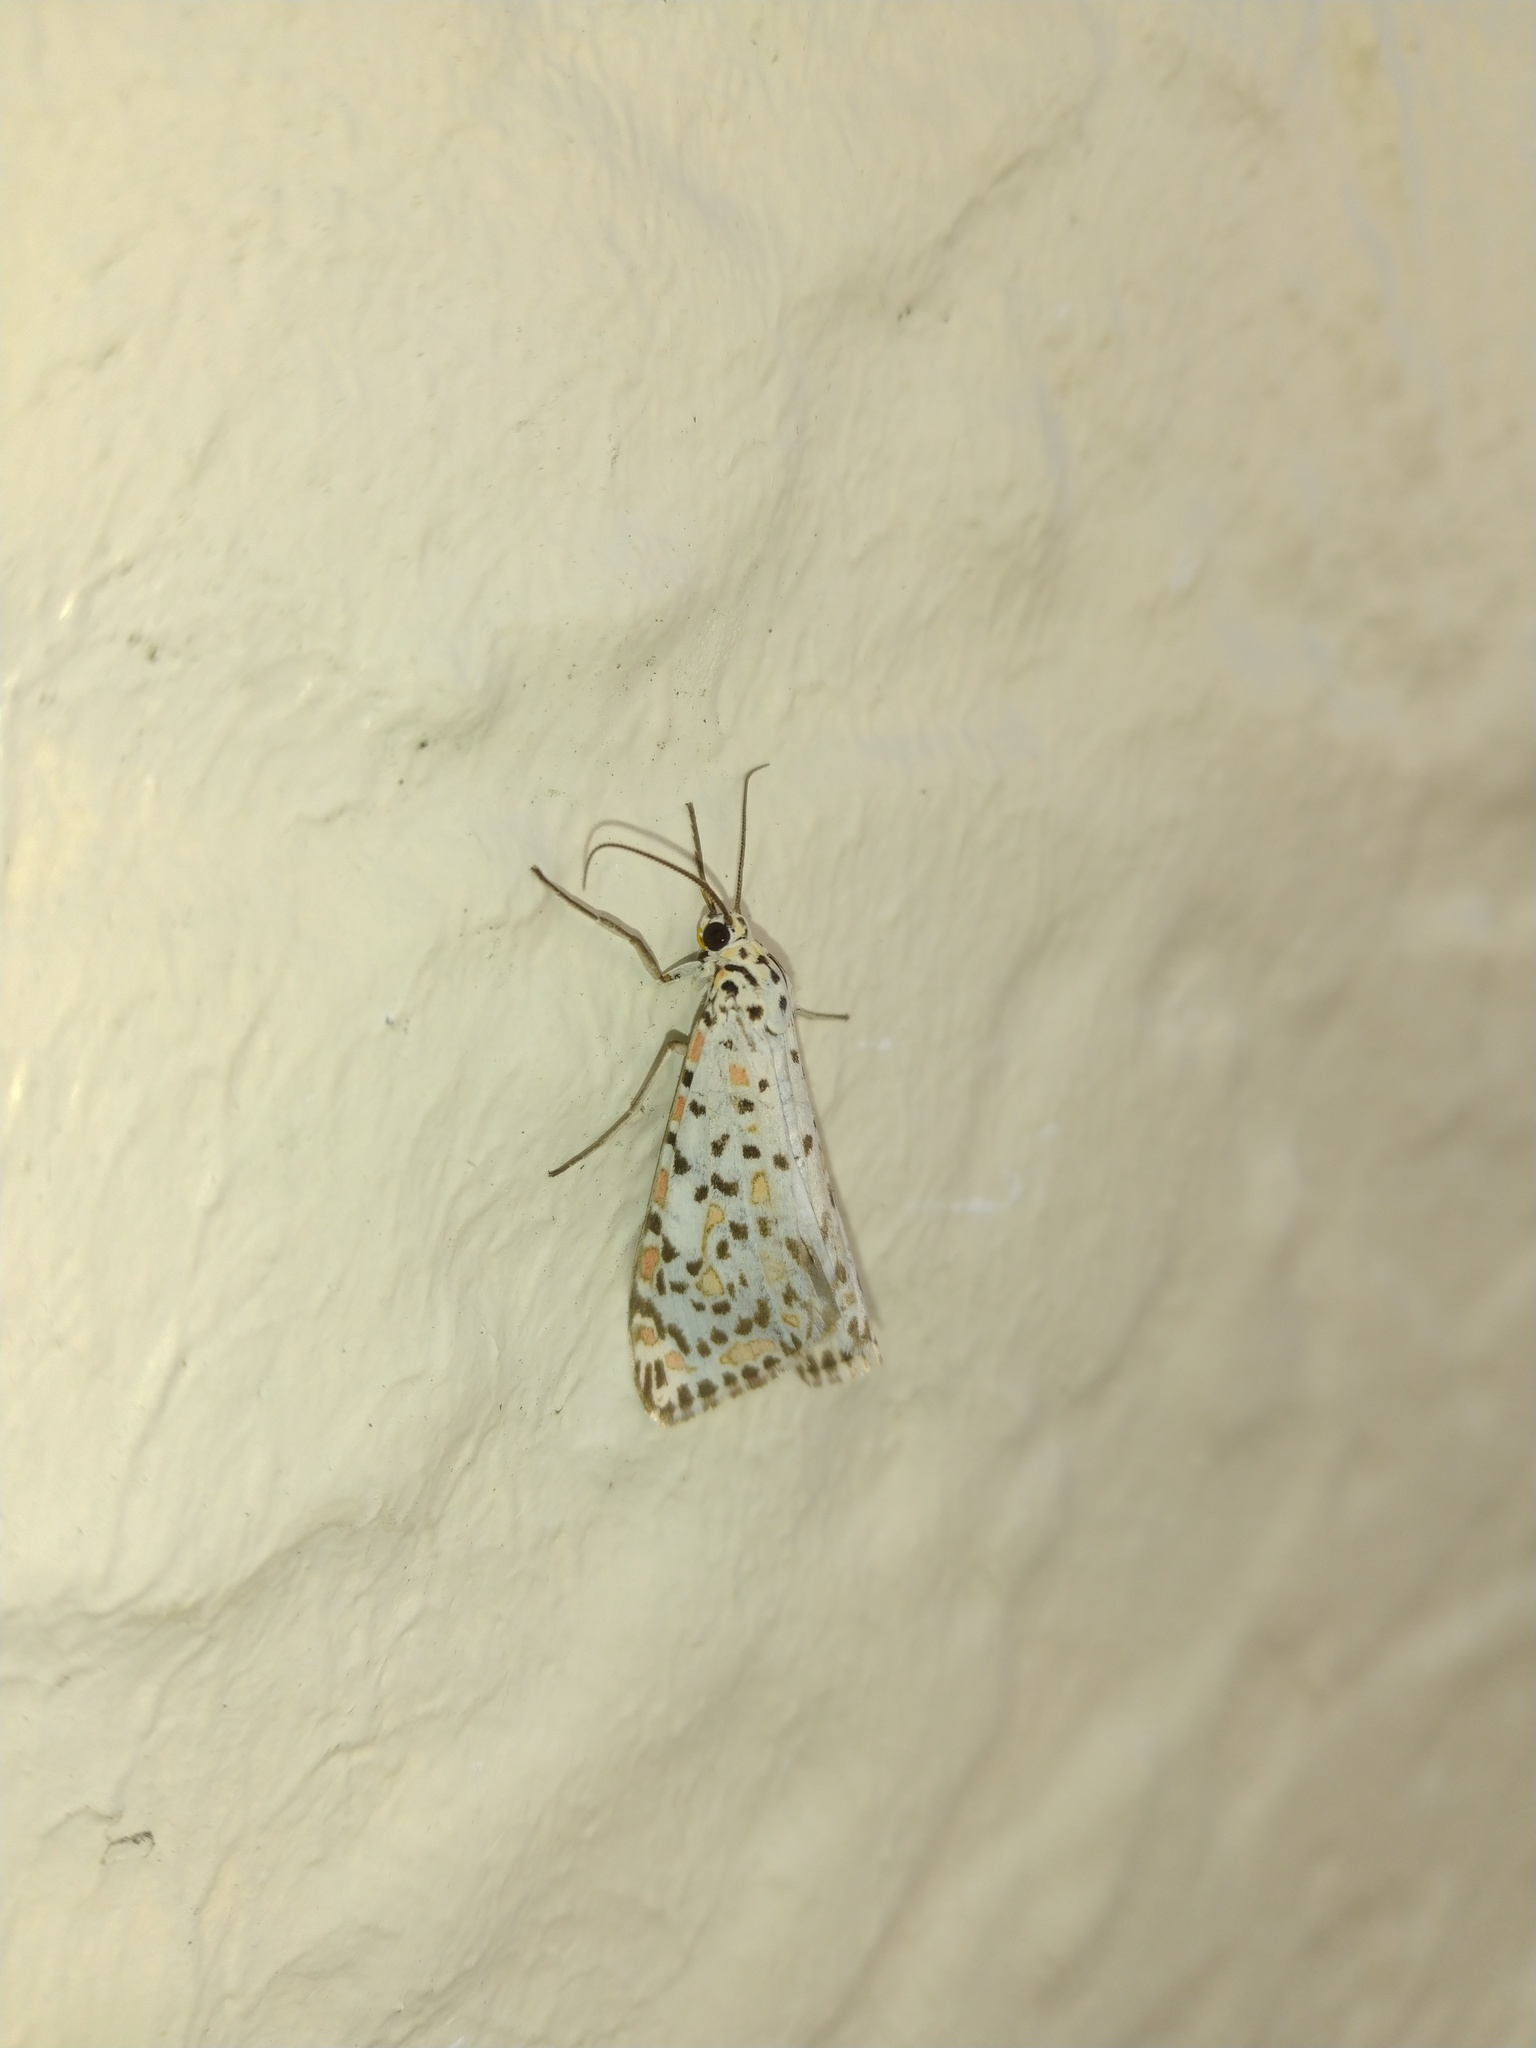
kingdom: Animalia
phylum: Arthropoda
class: Insecta
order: Lepidoptera
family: Erebidae
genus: Utetheisa
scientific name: Utetheisa pulchelloides
